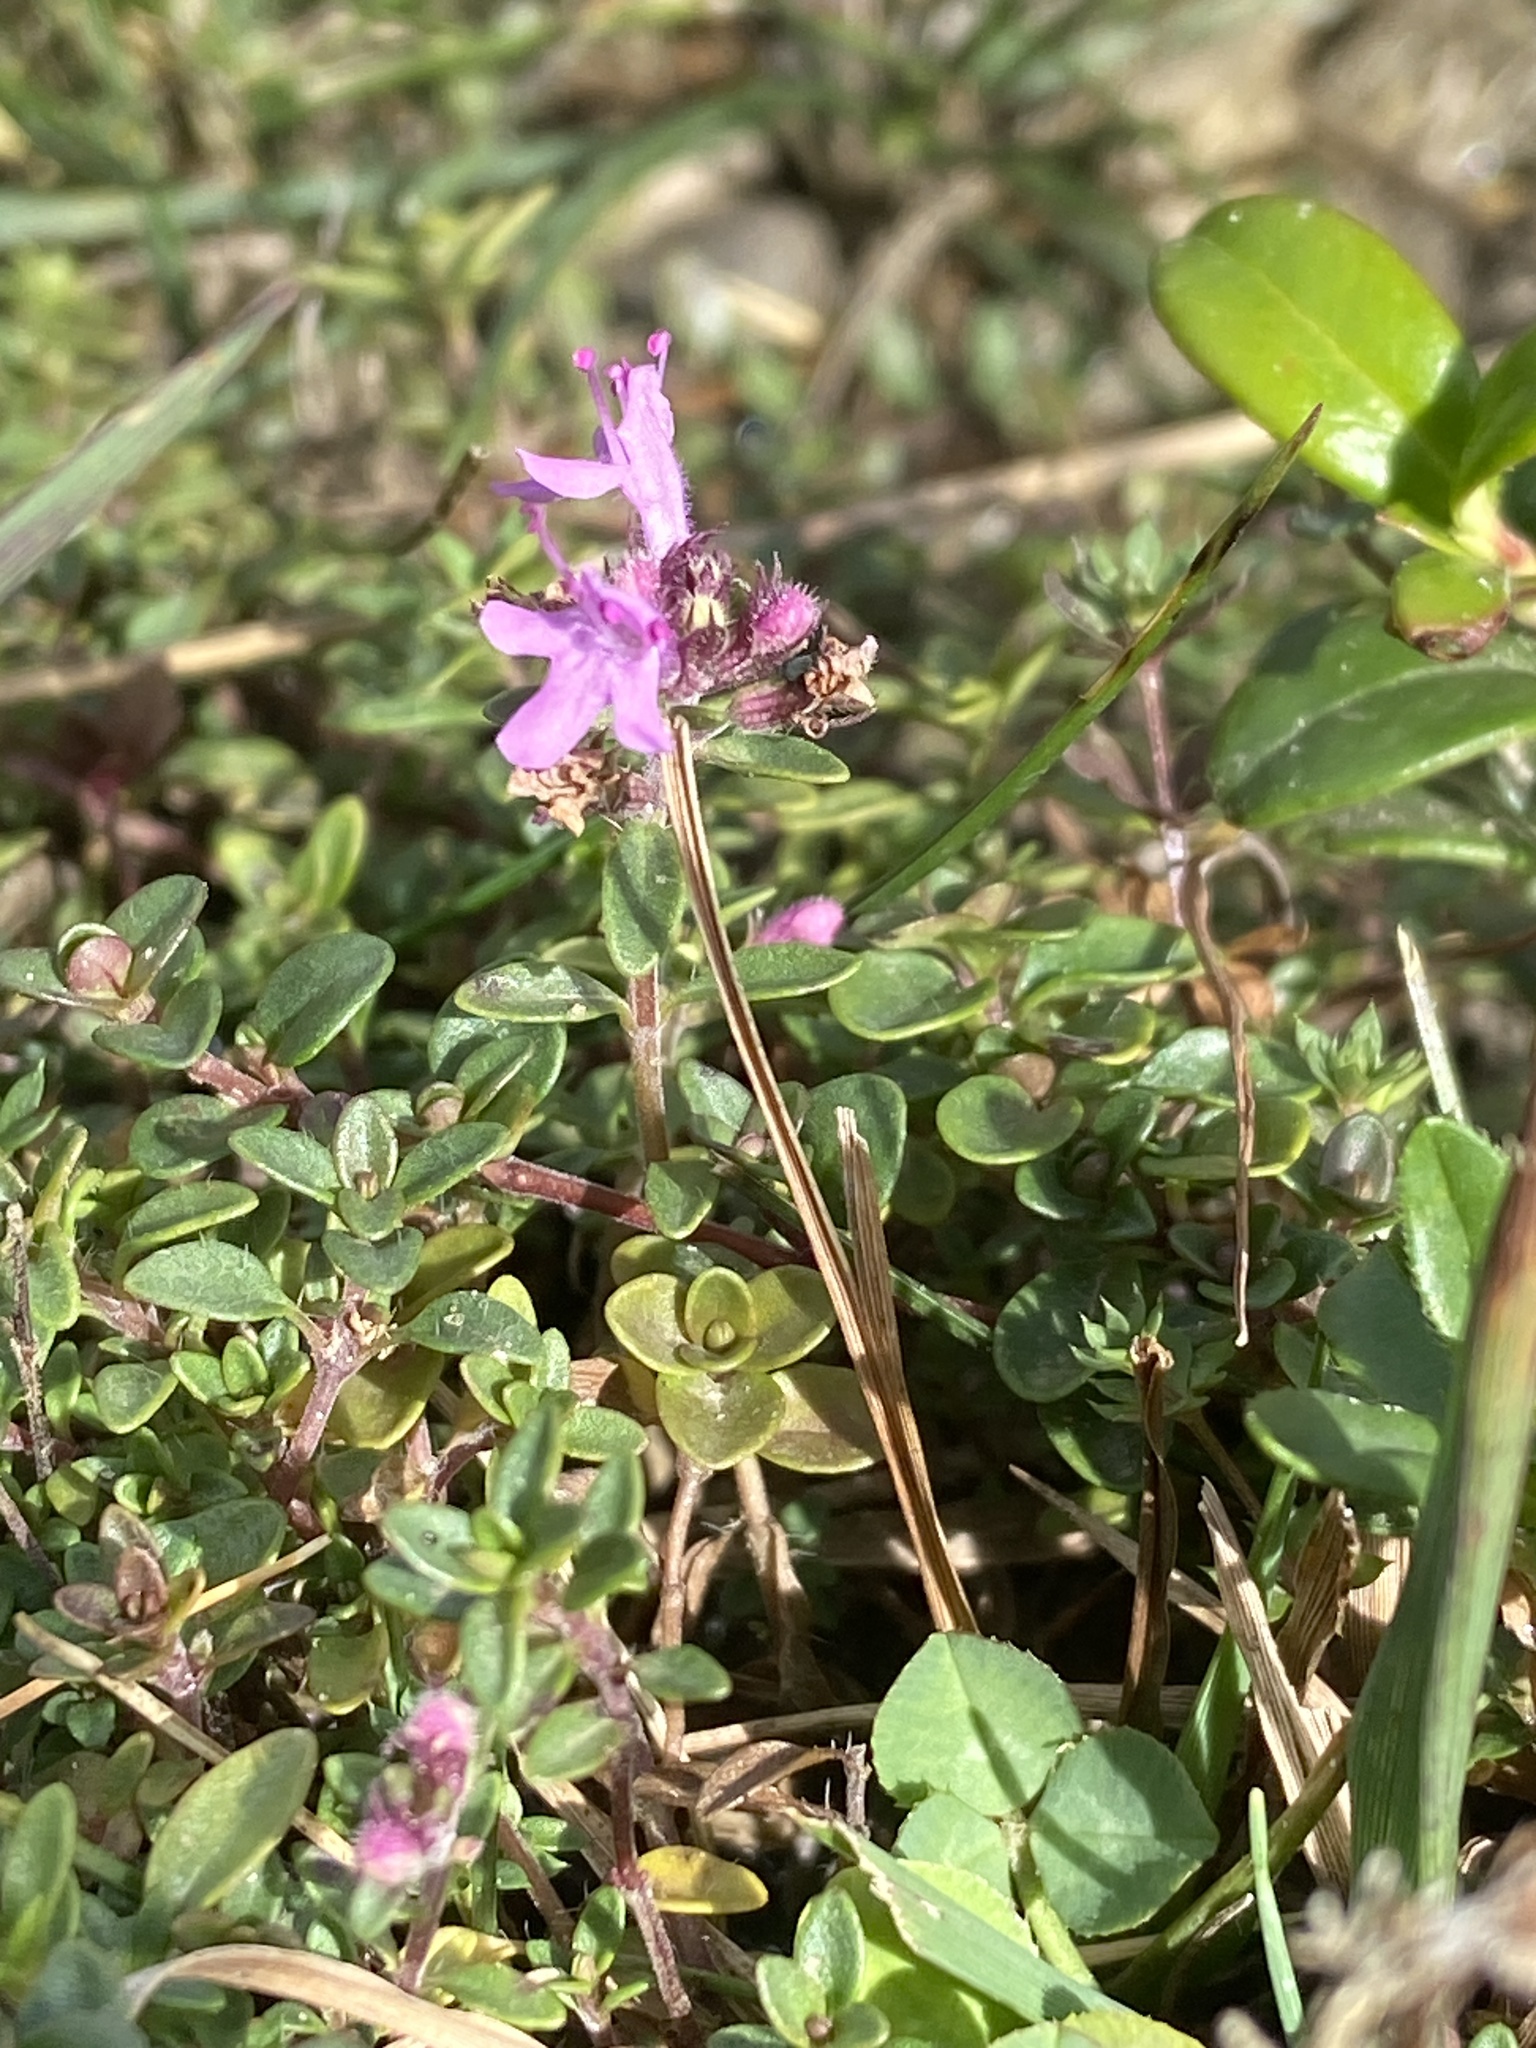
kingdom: Plantae
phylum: Tracheophyta
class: Magnoliopsida
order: Lamiales
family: Lamiaceae
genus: Thymus
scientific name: Thymus pulegioides
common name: Large thyme
